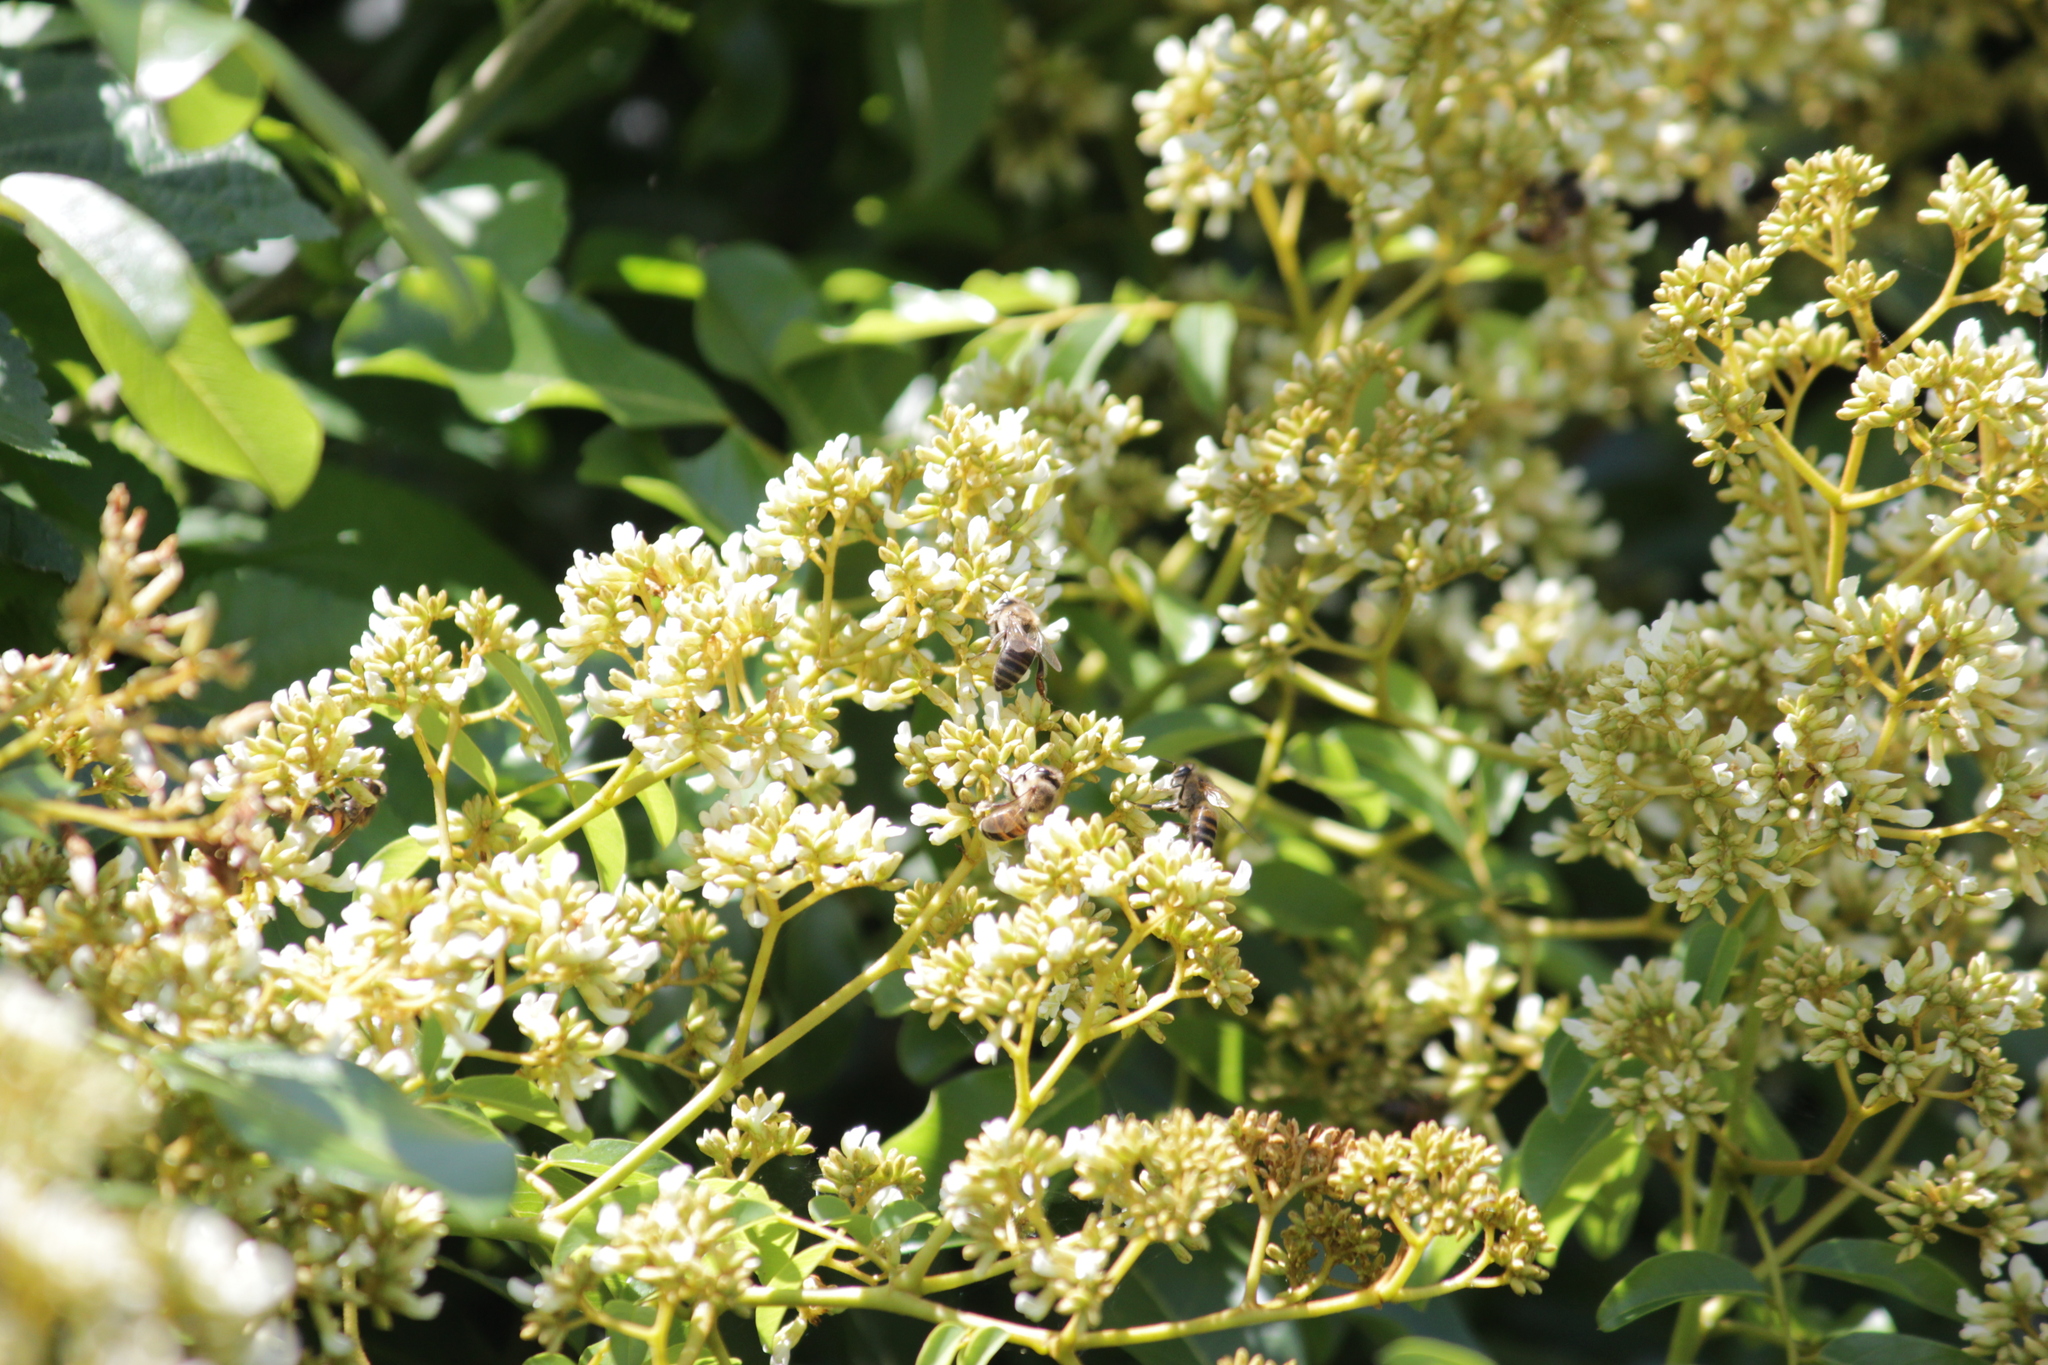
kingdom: Animalia
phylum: Arthropoda
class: Insecta
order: Hymenoptera
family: Apidae
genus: Apis
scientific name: Apis mellifera
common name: Honey bee
